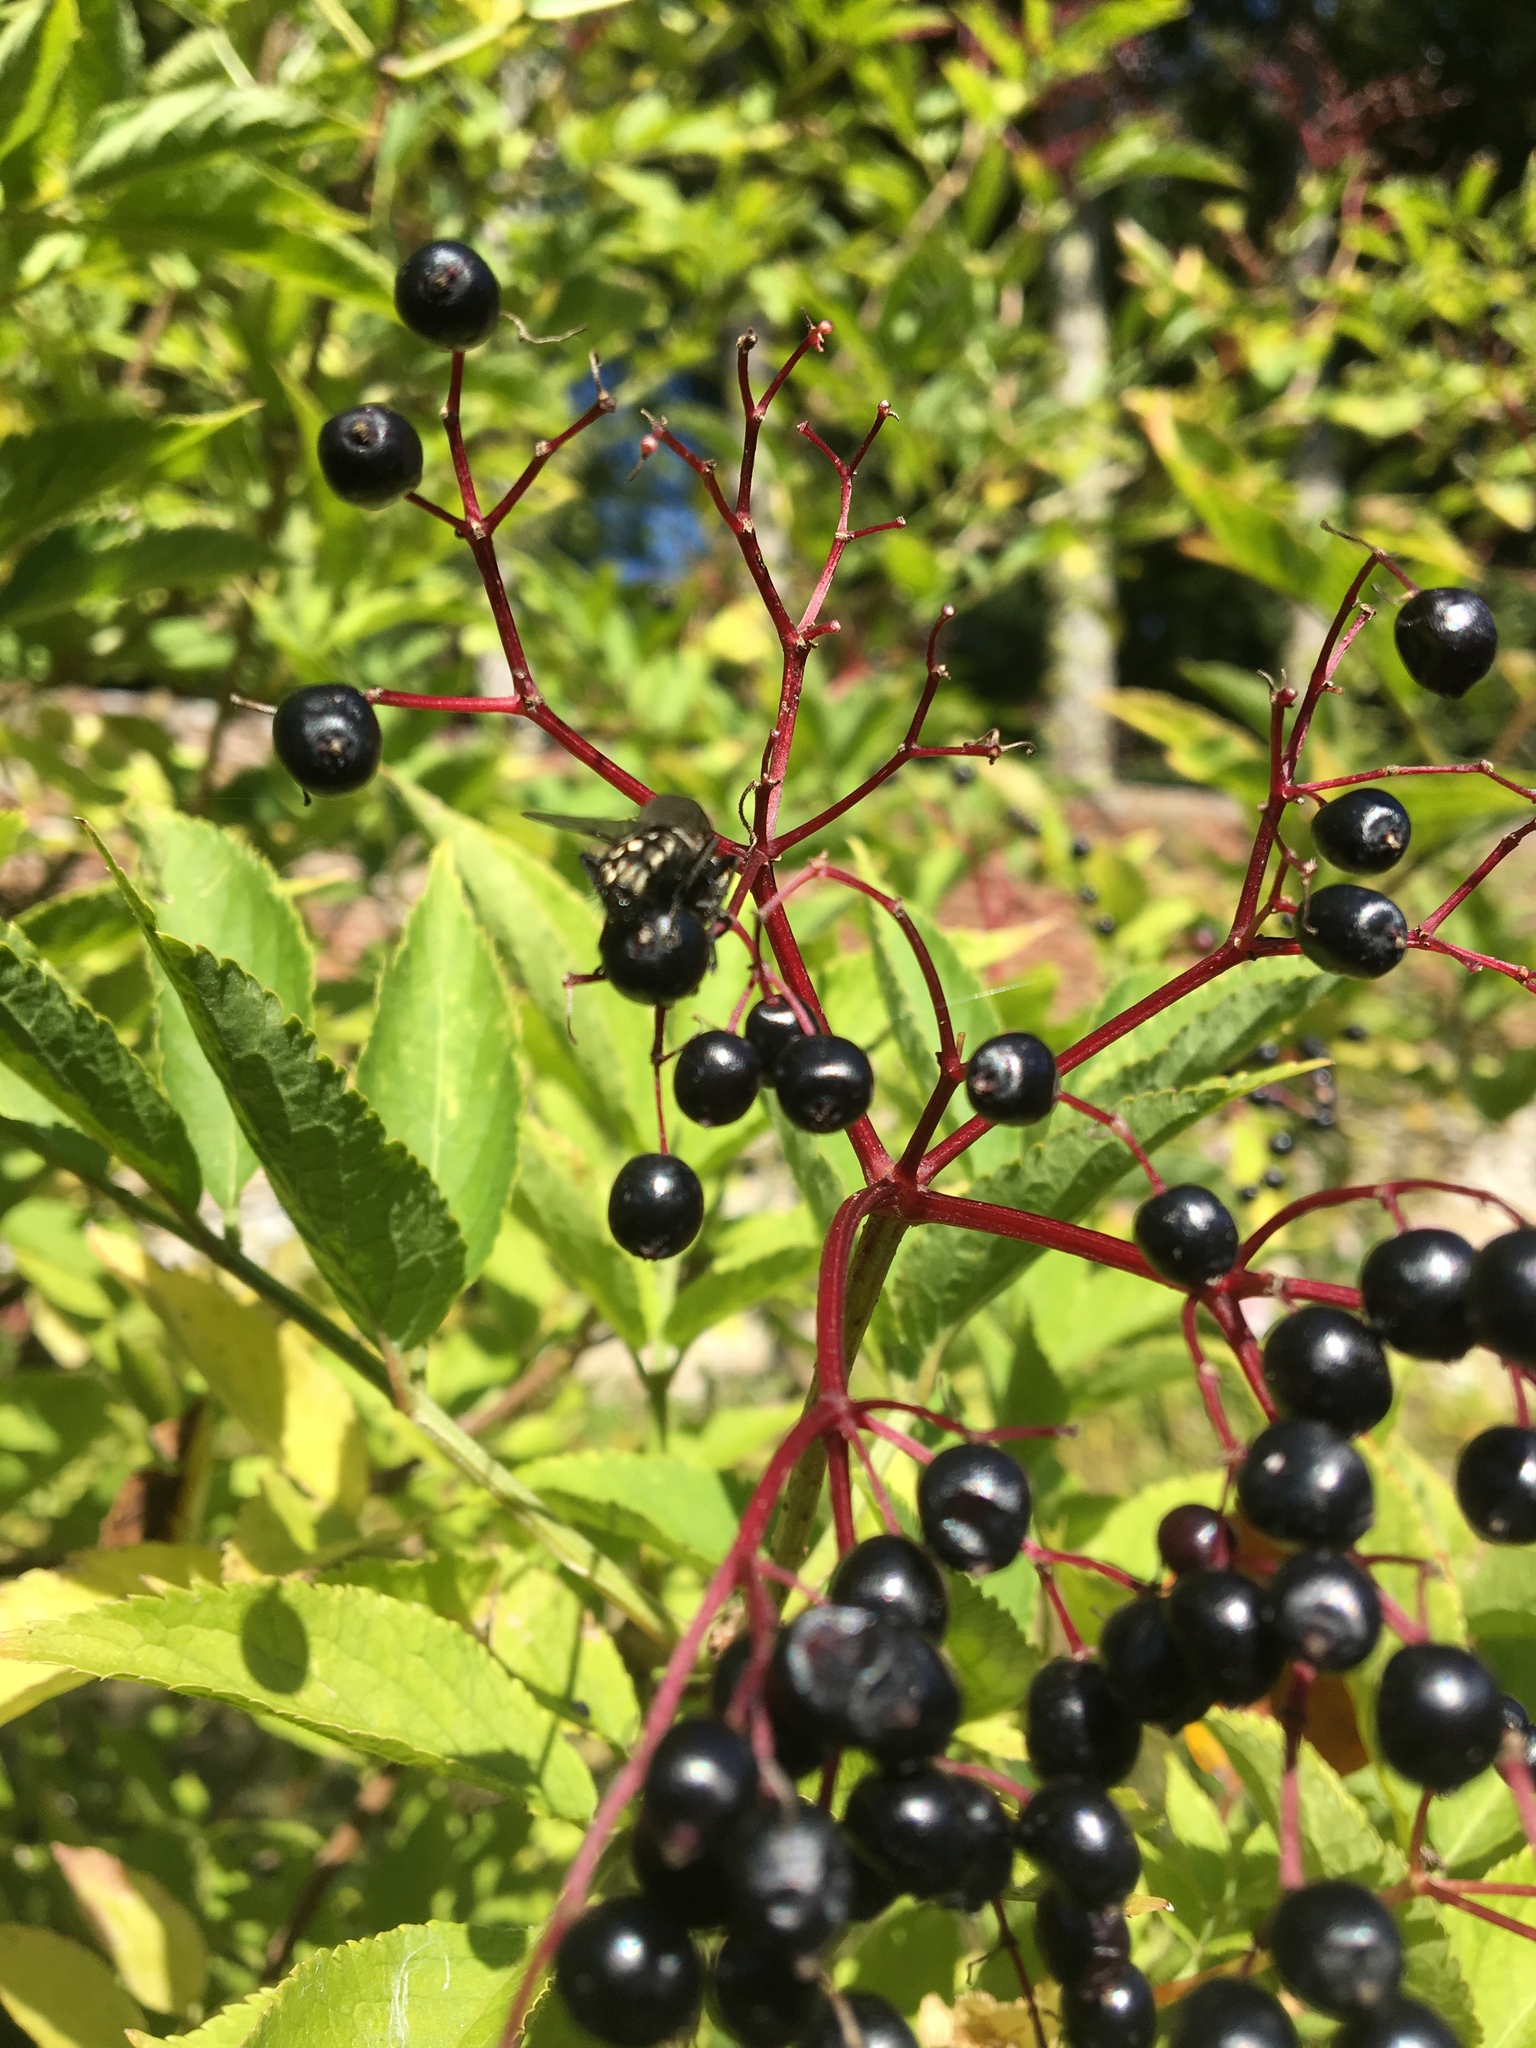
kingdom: Plantae
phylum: Tracheophyta
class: Magnoliopsida
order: Dipsacales
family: Viburnaceae
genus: Sambucus
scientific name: Sambucus nigra
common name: Elder
